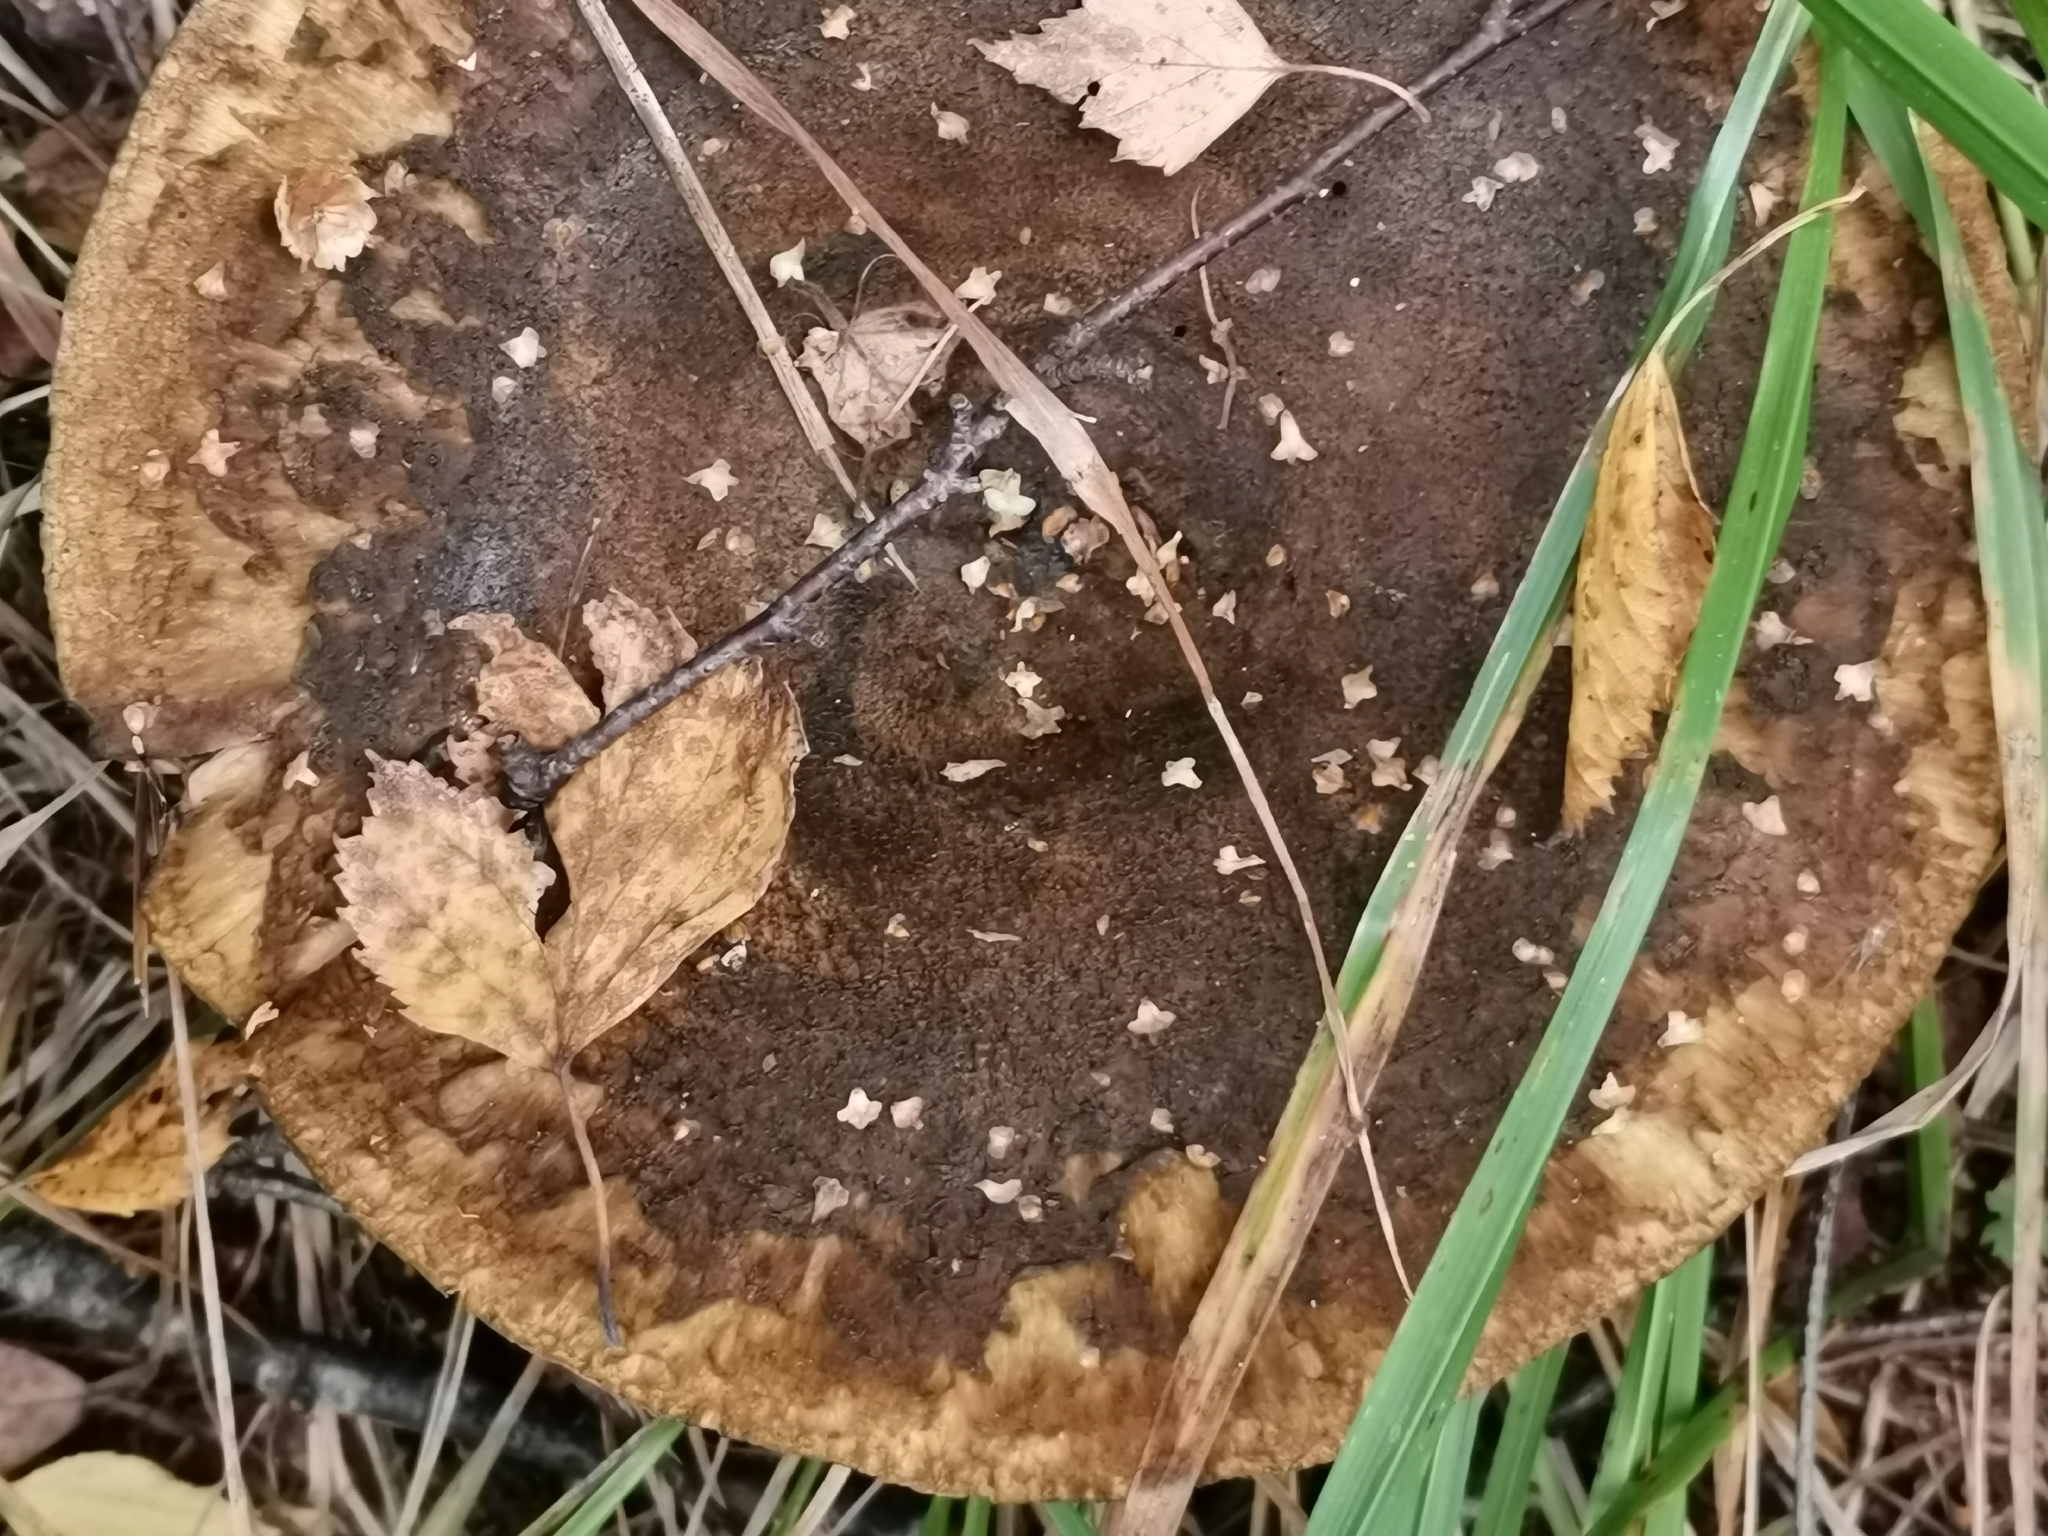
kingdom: Fungi
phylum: Basidiomycota
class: Agaricomycetes
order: Russulales
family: Russulaceae
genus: Lactarius
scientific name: Lactarius turpis
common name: Ugly milk-cap
